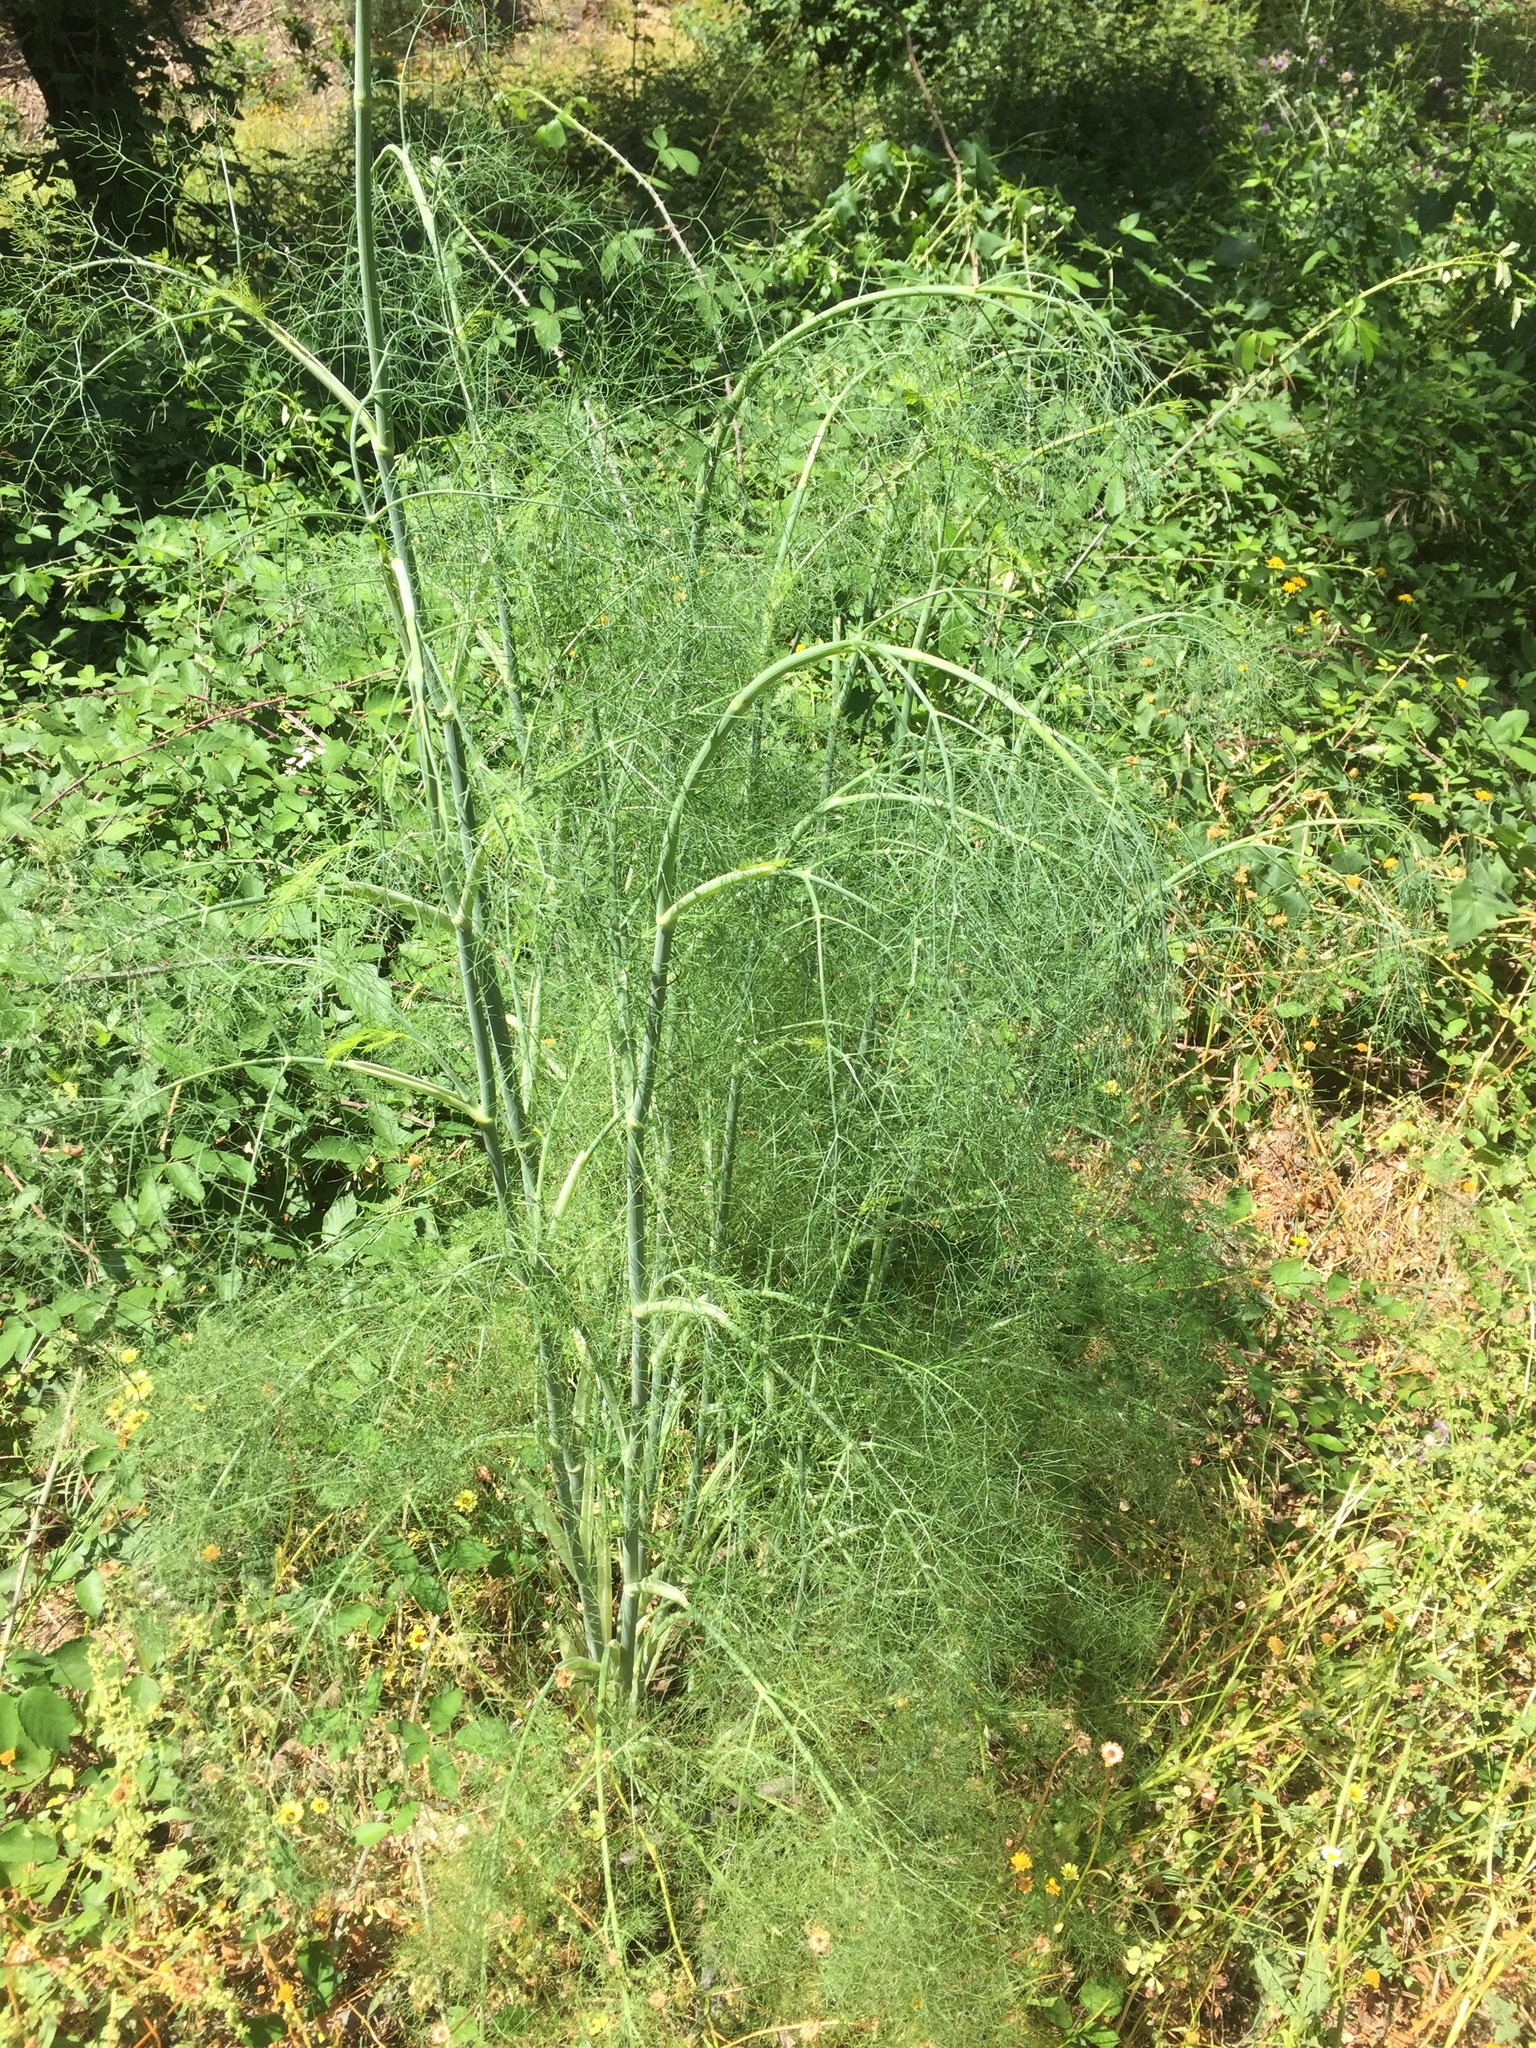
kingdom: Plantae
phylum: Tracheophyta
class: Magnoliopsida
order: Apiales
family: Apiaceae
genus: Foeniculum
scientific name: Foeniculum vulgare
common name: Fennel
